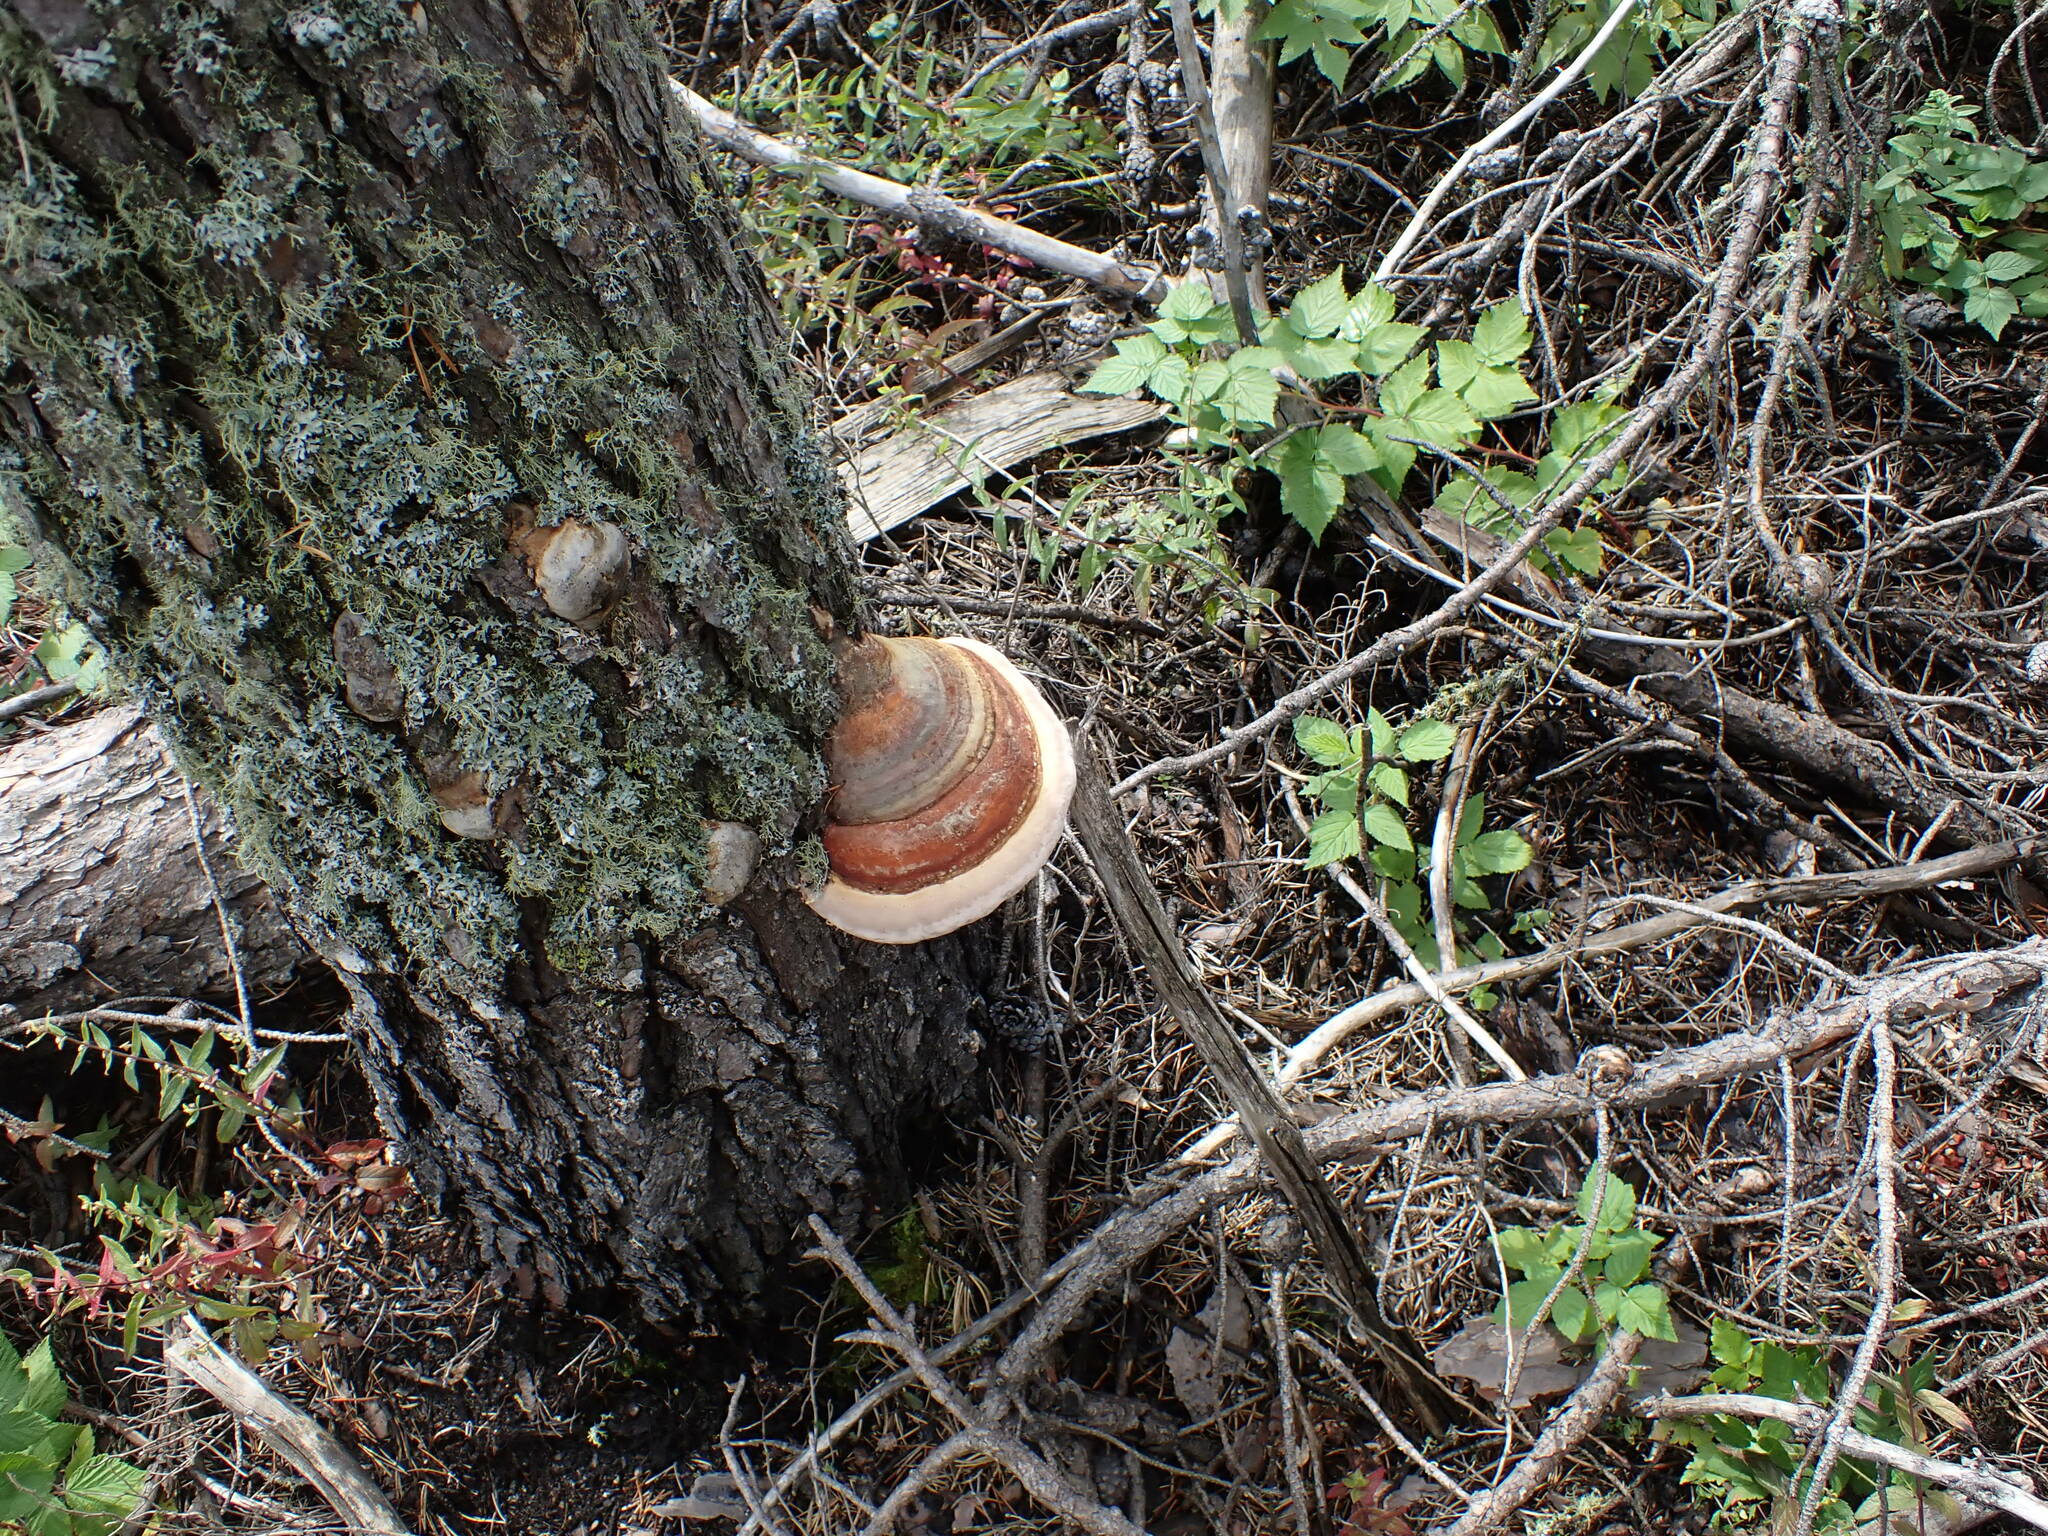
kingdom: Fungi
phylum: Basidiomycota
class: Agaricomycetes
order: Polyporales
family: Fomitopsidaceae
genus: Fomitopsis
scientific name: Fomitopsis mounceae
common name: Northern red belt
